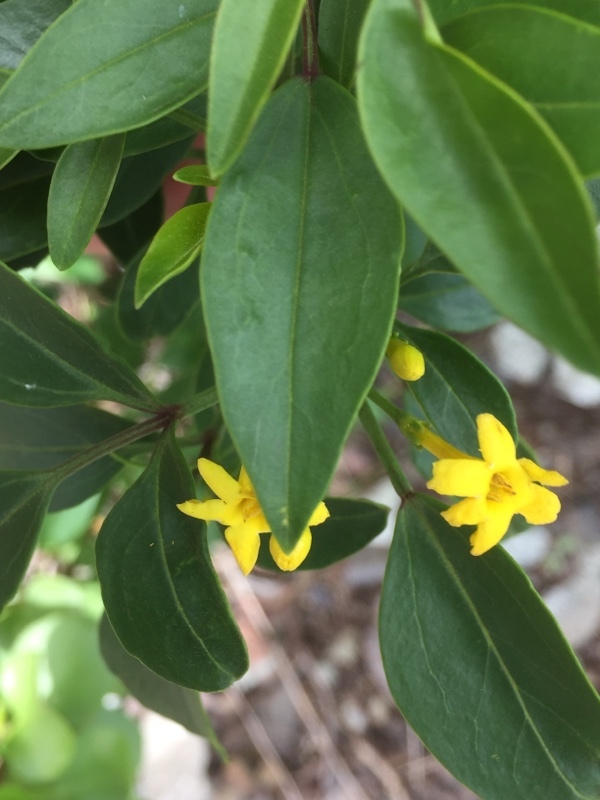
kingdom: Plantae
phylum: Tracheophyta
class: Magnoliopsida
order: Lamiales
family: Oleaceae
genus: Chrysojasminum
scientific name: Chrysojasminum odoratissimum
